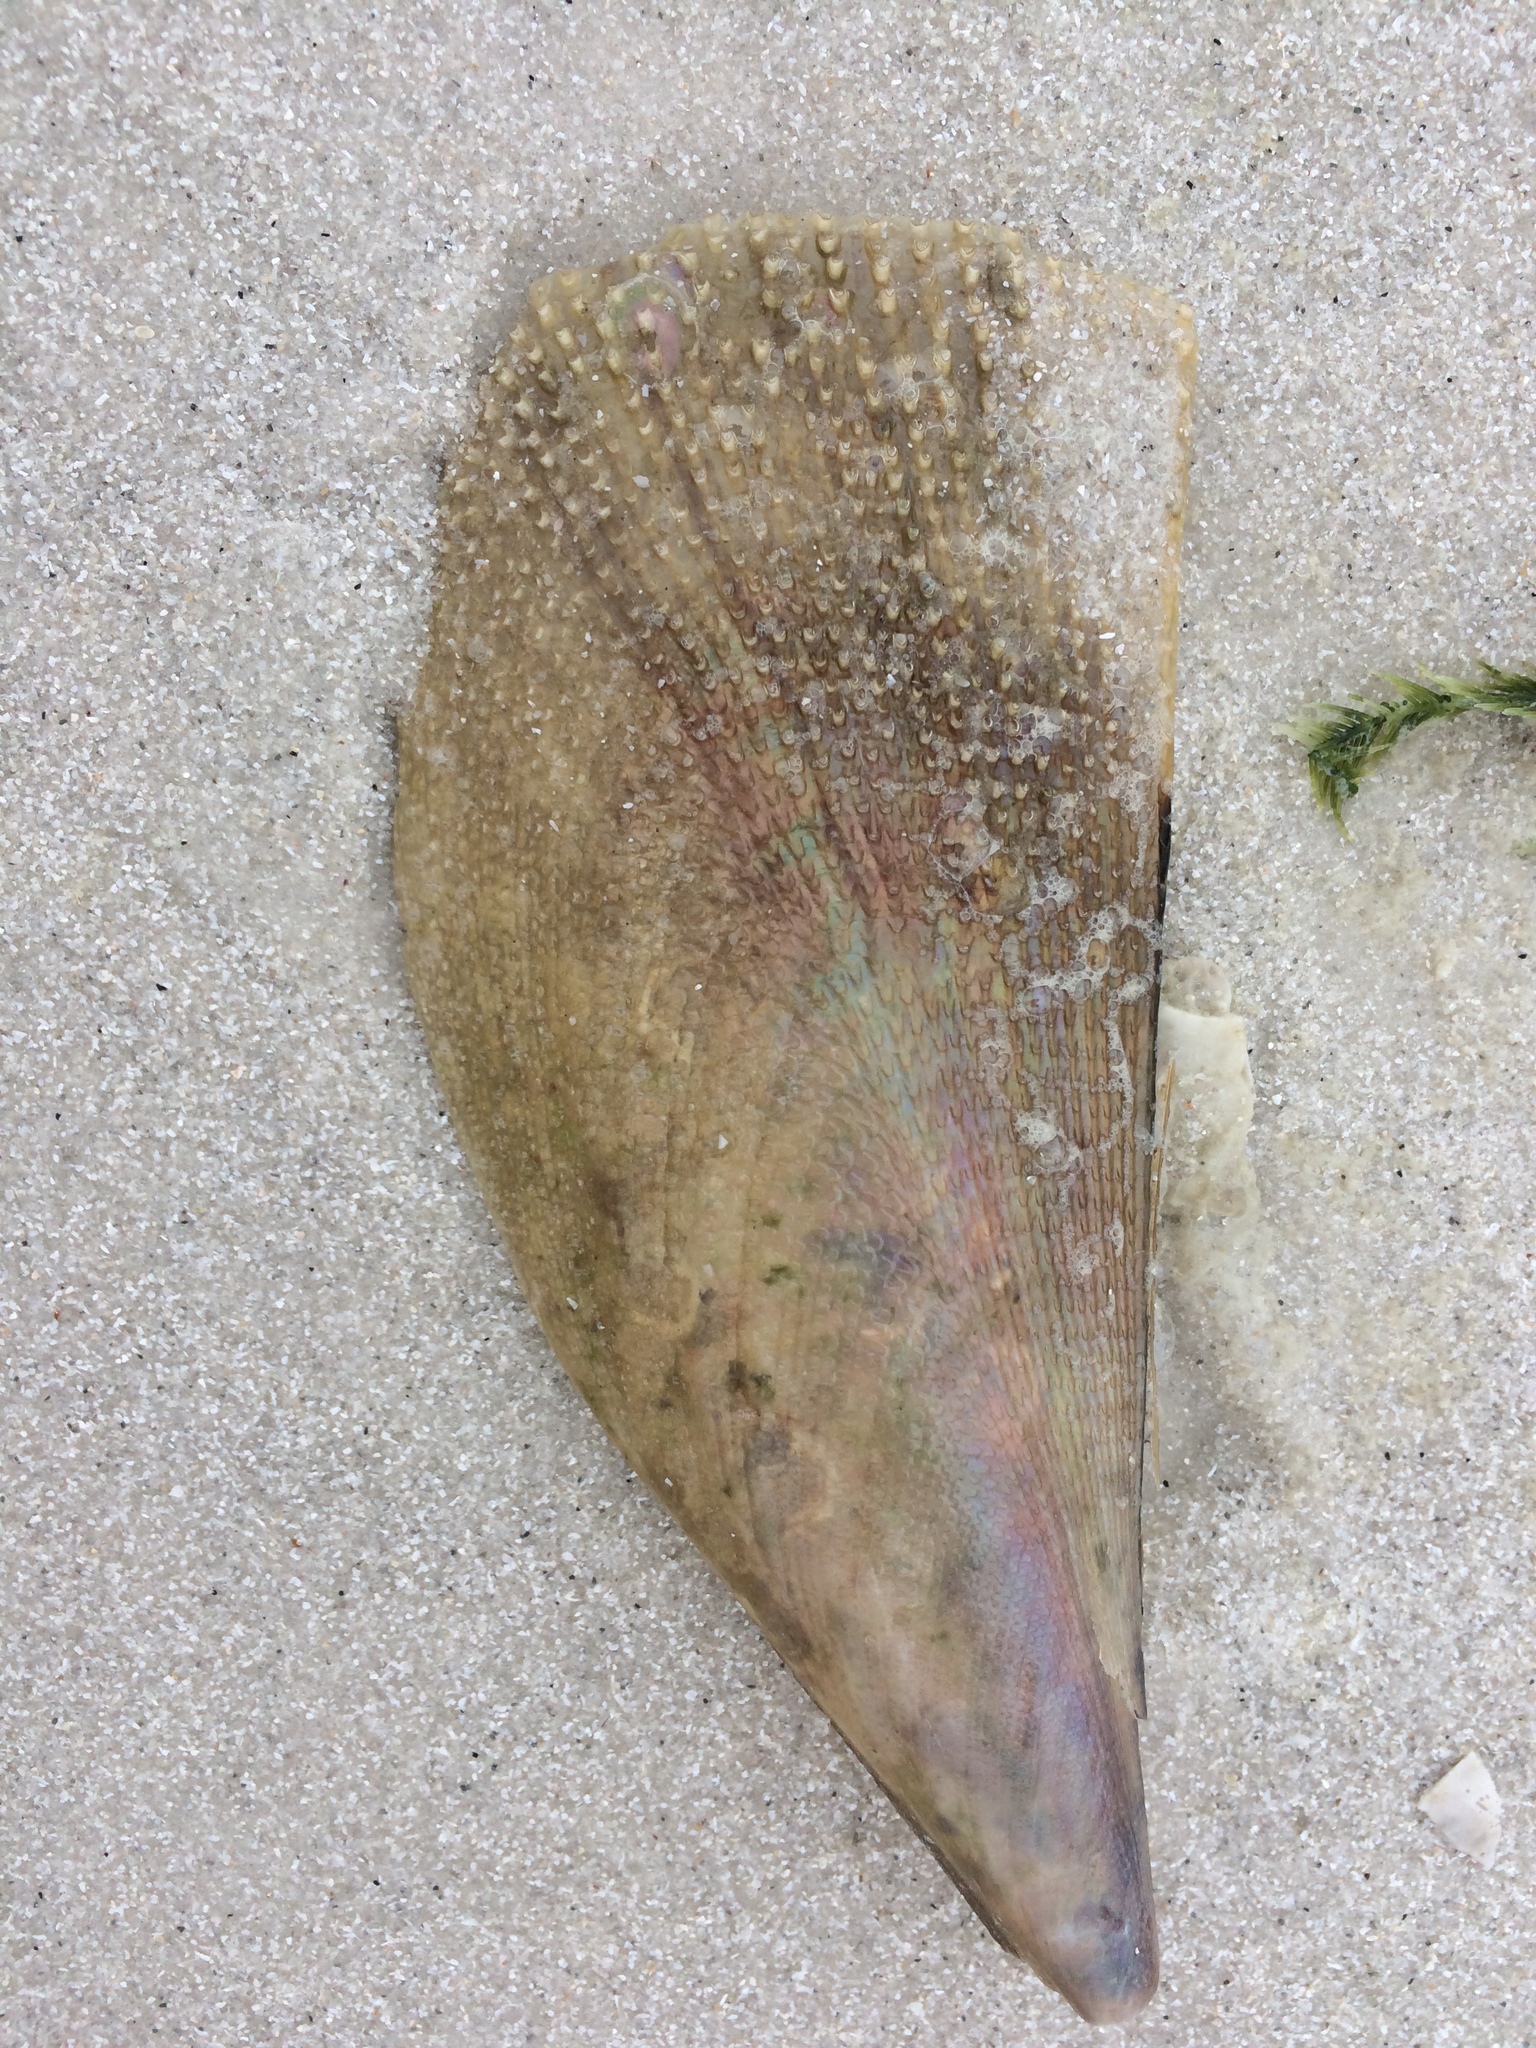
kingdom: Animalia
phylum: Mollusca
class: Bivalvia
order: Ostreida
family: Pinnidae
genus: Atrina
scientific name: Atrina serrata
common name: Saw-toothed penshell
